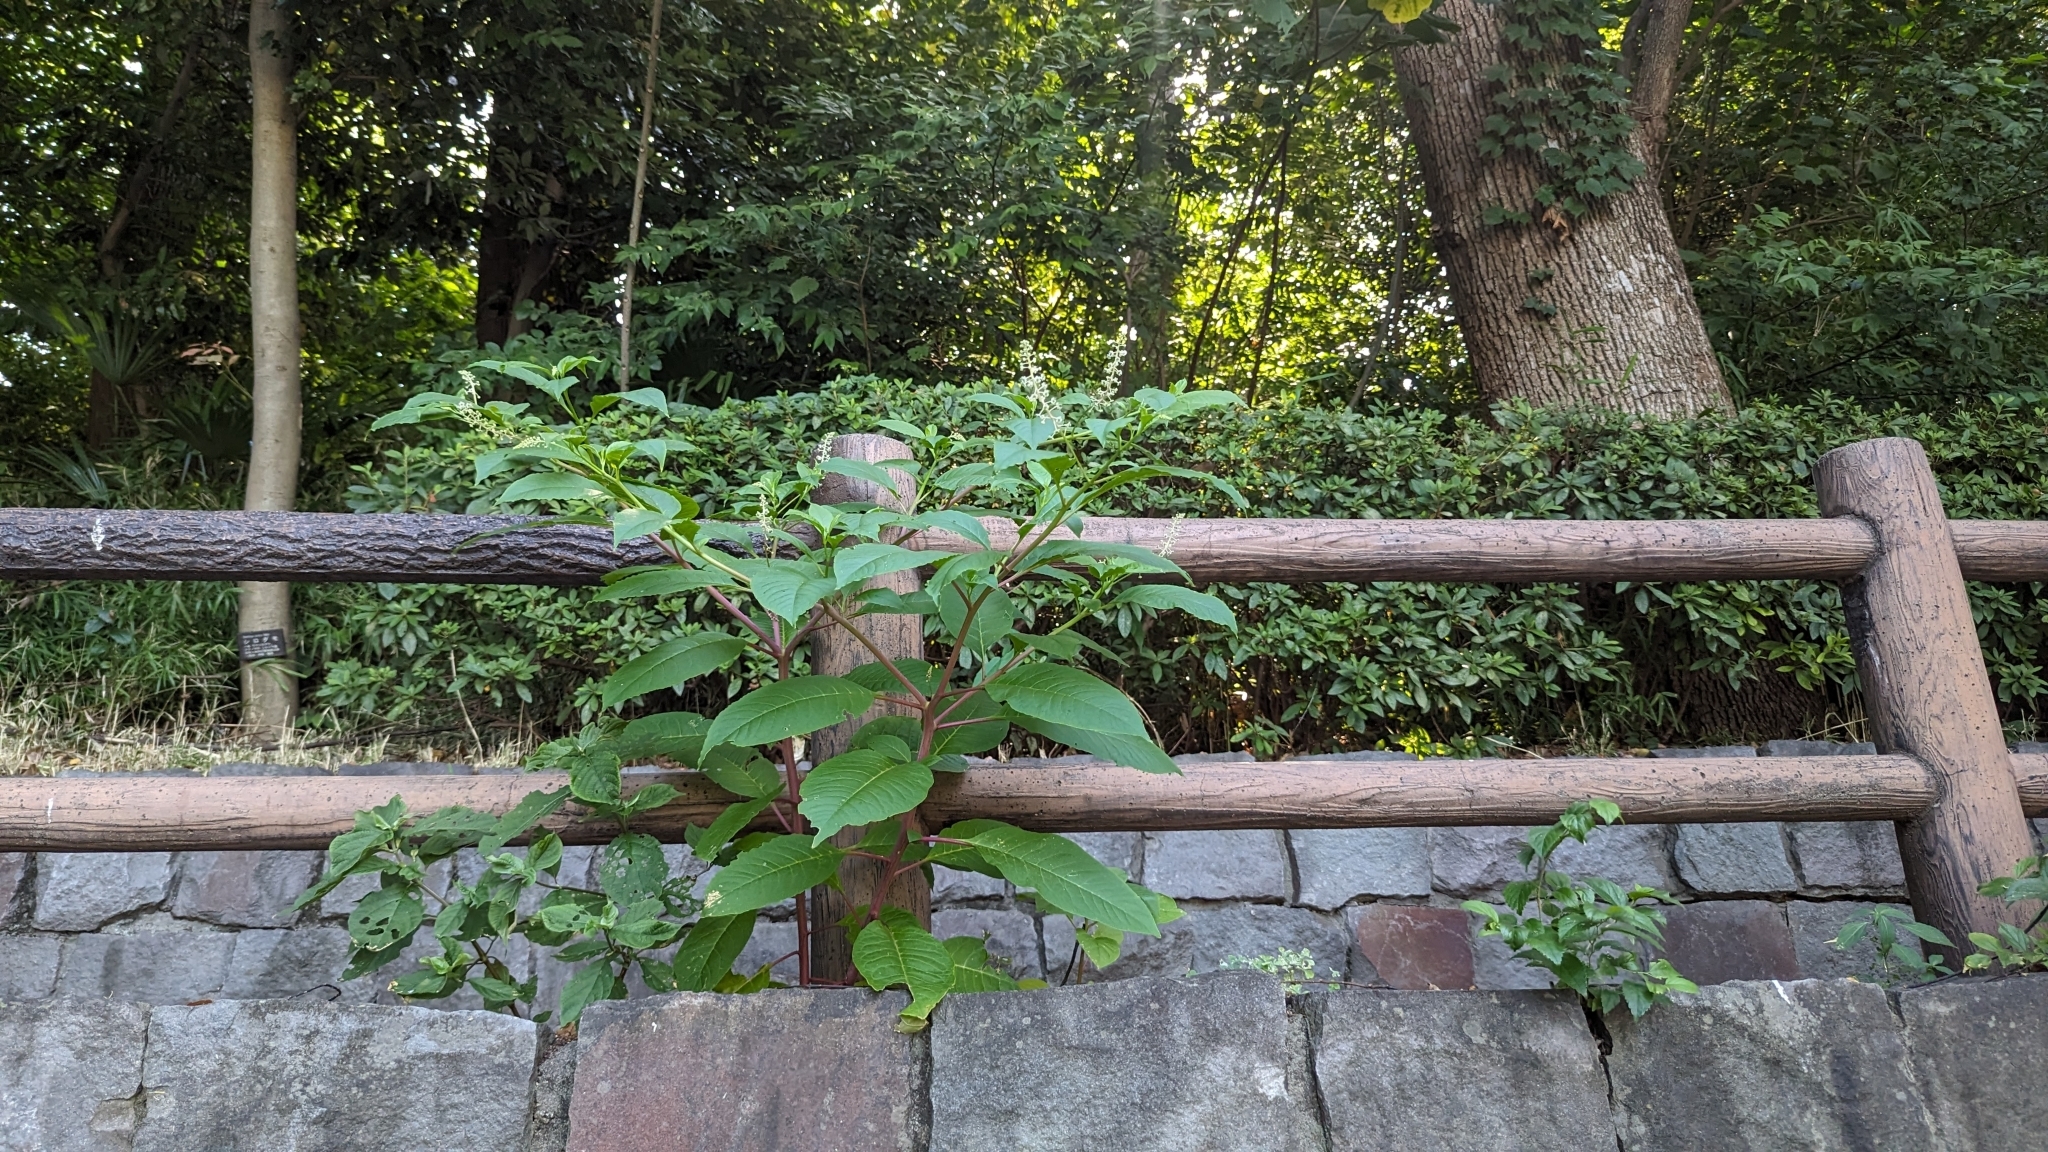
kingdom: Plantae
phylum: Tracheophyta
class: Magnoliopsida
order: Caryophyllales
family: Phytolaccaceae
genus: Phytolacca
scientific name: Phytolacca americana
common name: American pokeweed
